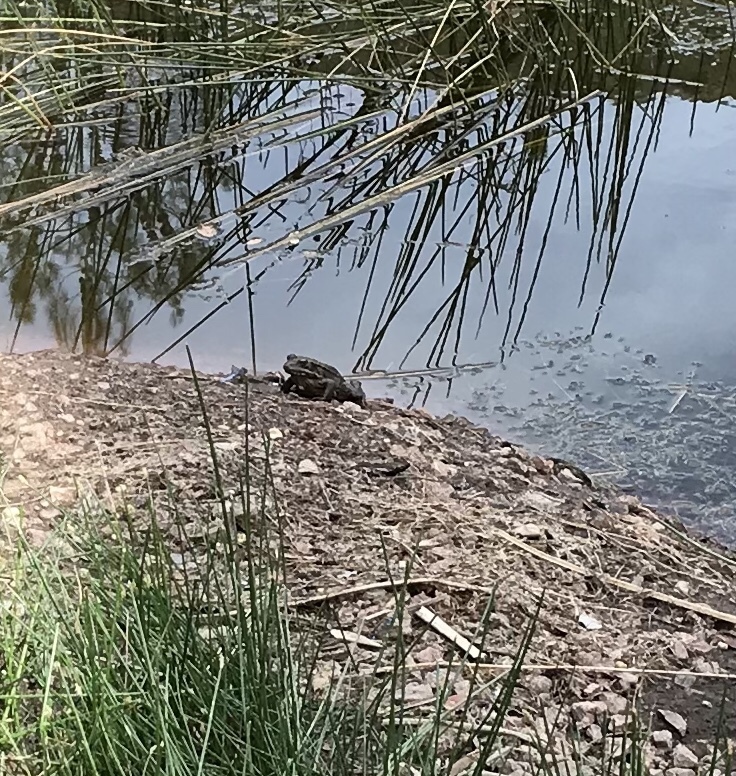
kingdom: Animalia
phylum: Chordata
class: Amphibia
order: Anura
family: Ranidae
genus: Rana
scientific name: Rana draytonii
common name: California red-legged frog
